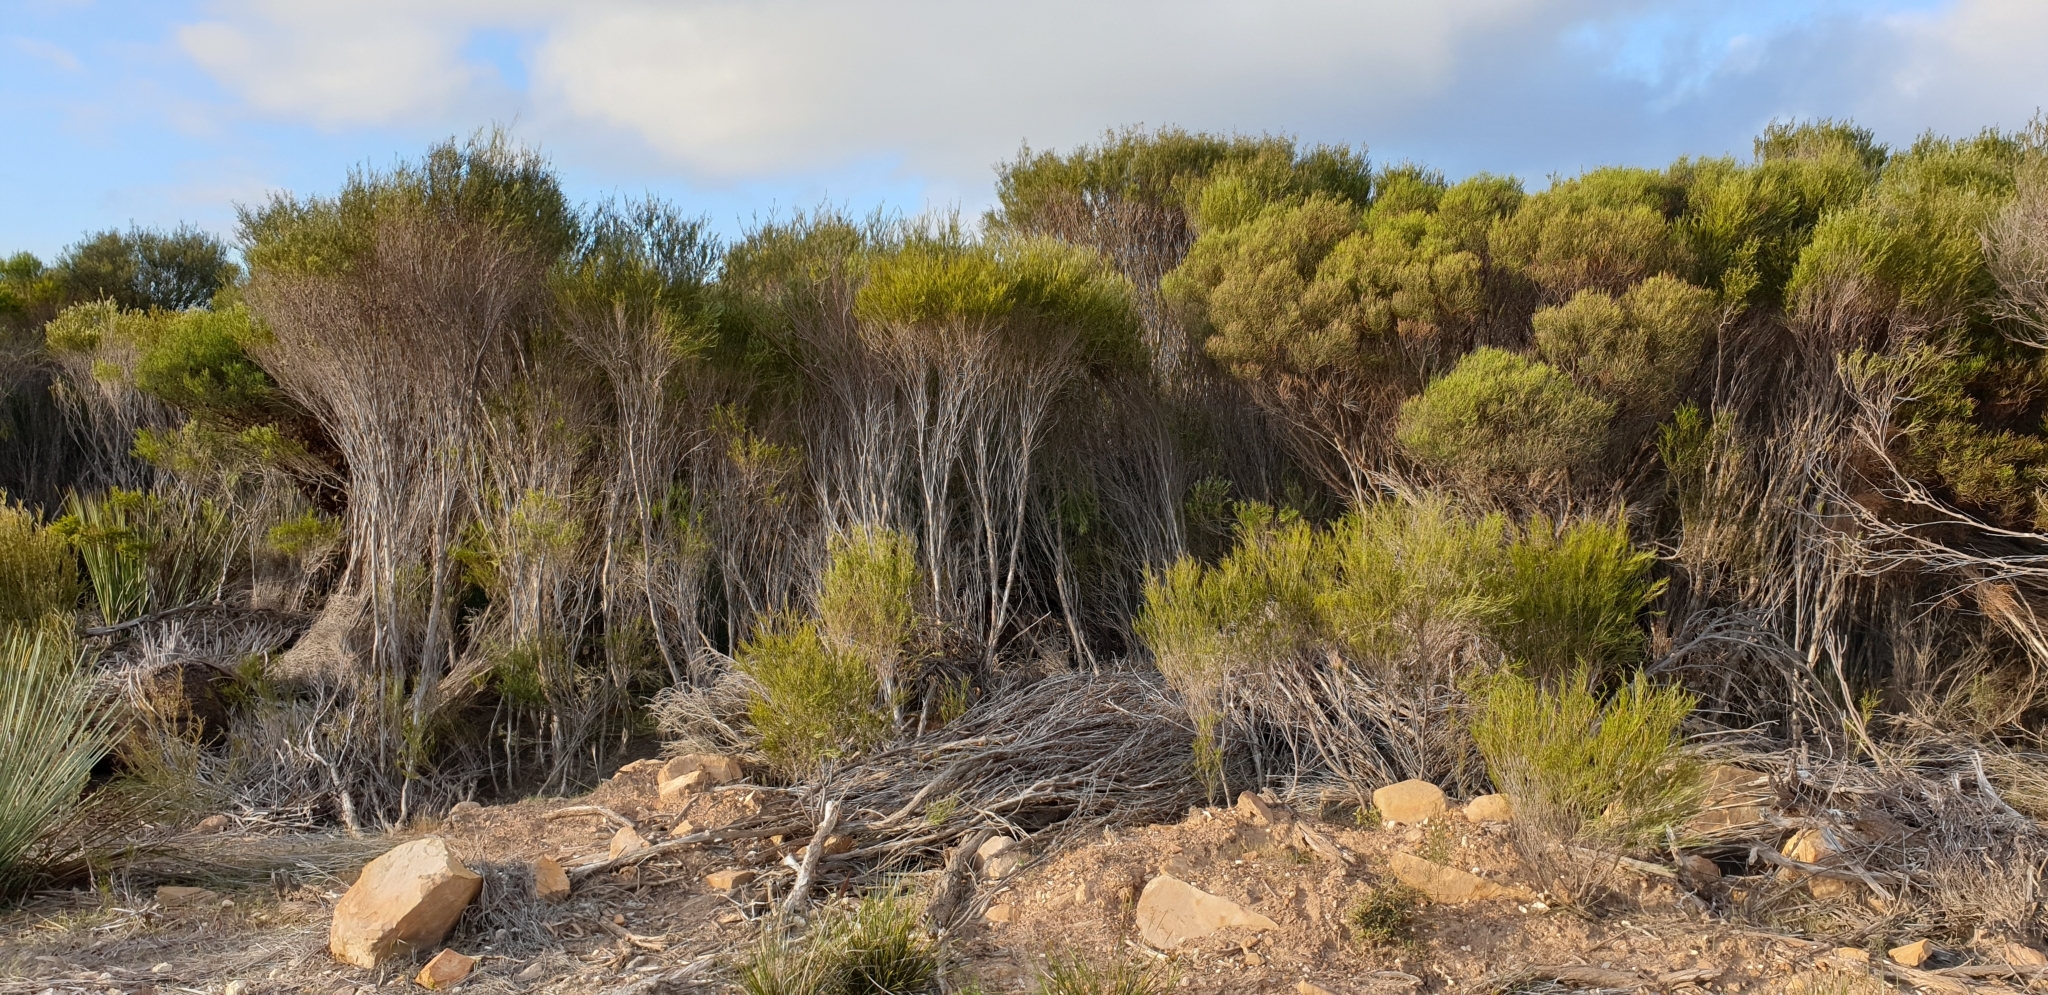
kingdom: Plantae
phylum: Tracheophyta
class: Magnoliopsida
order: Myrtales
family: Myrtaceae
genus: Melaleuca
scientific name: Melaleuca uncinata
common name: Broom honey myrtle
